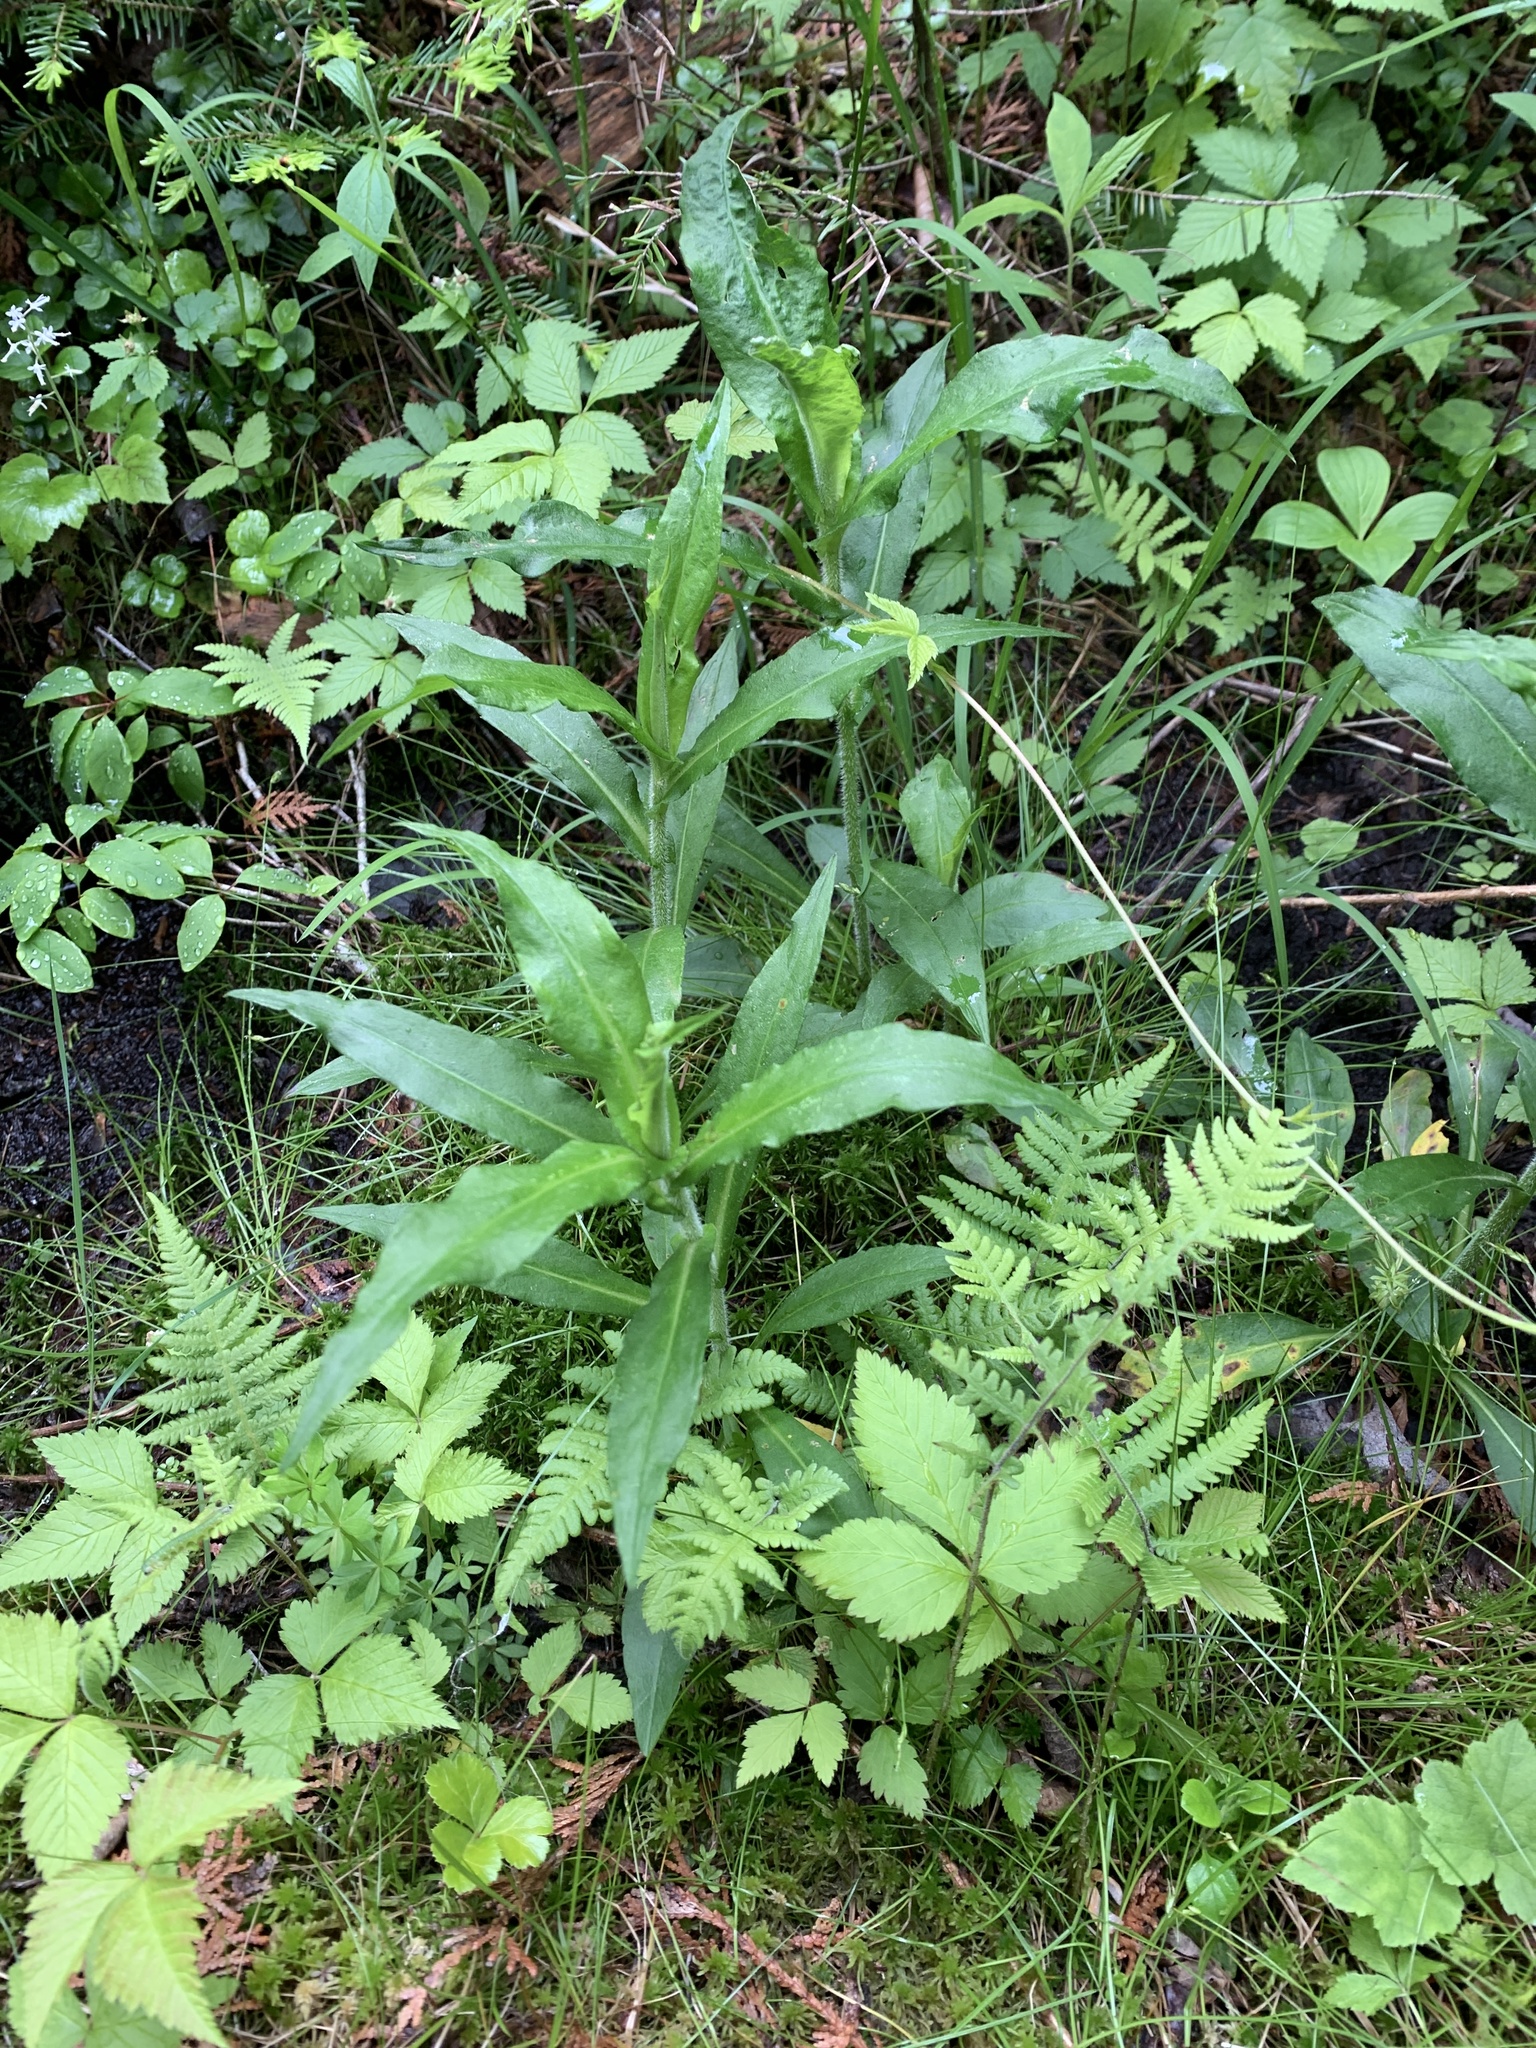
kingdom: Plantae
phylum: Tracheophyta
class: Magnoliopsida
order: Asterales
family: Asteraceae
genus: Symphyotrichum
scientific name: Symphyotrichum puniceum
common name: Bog aster
